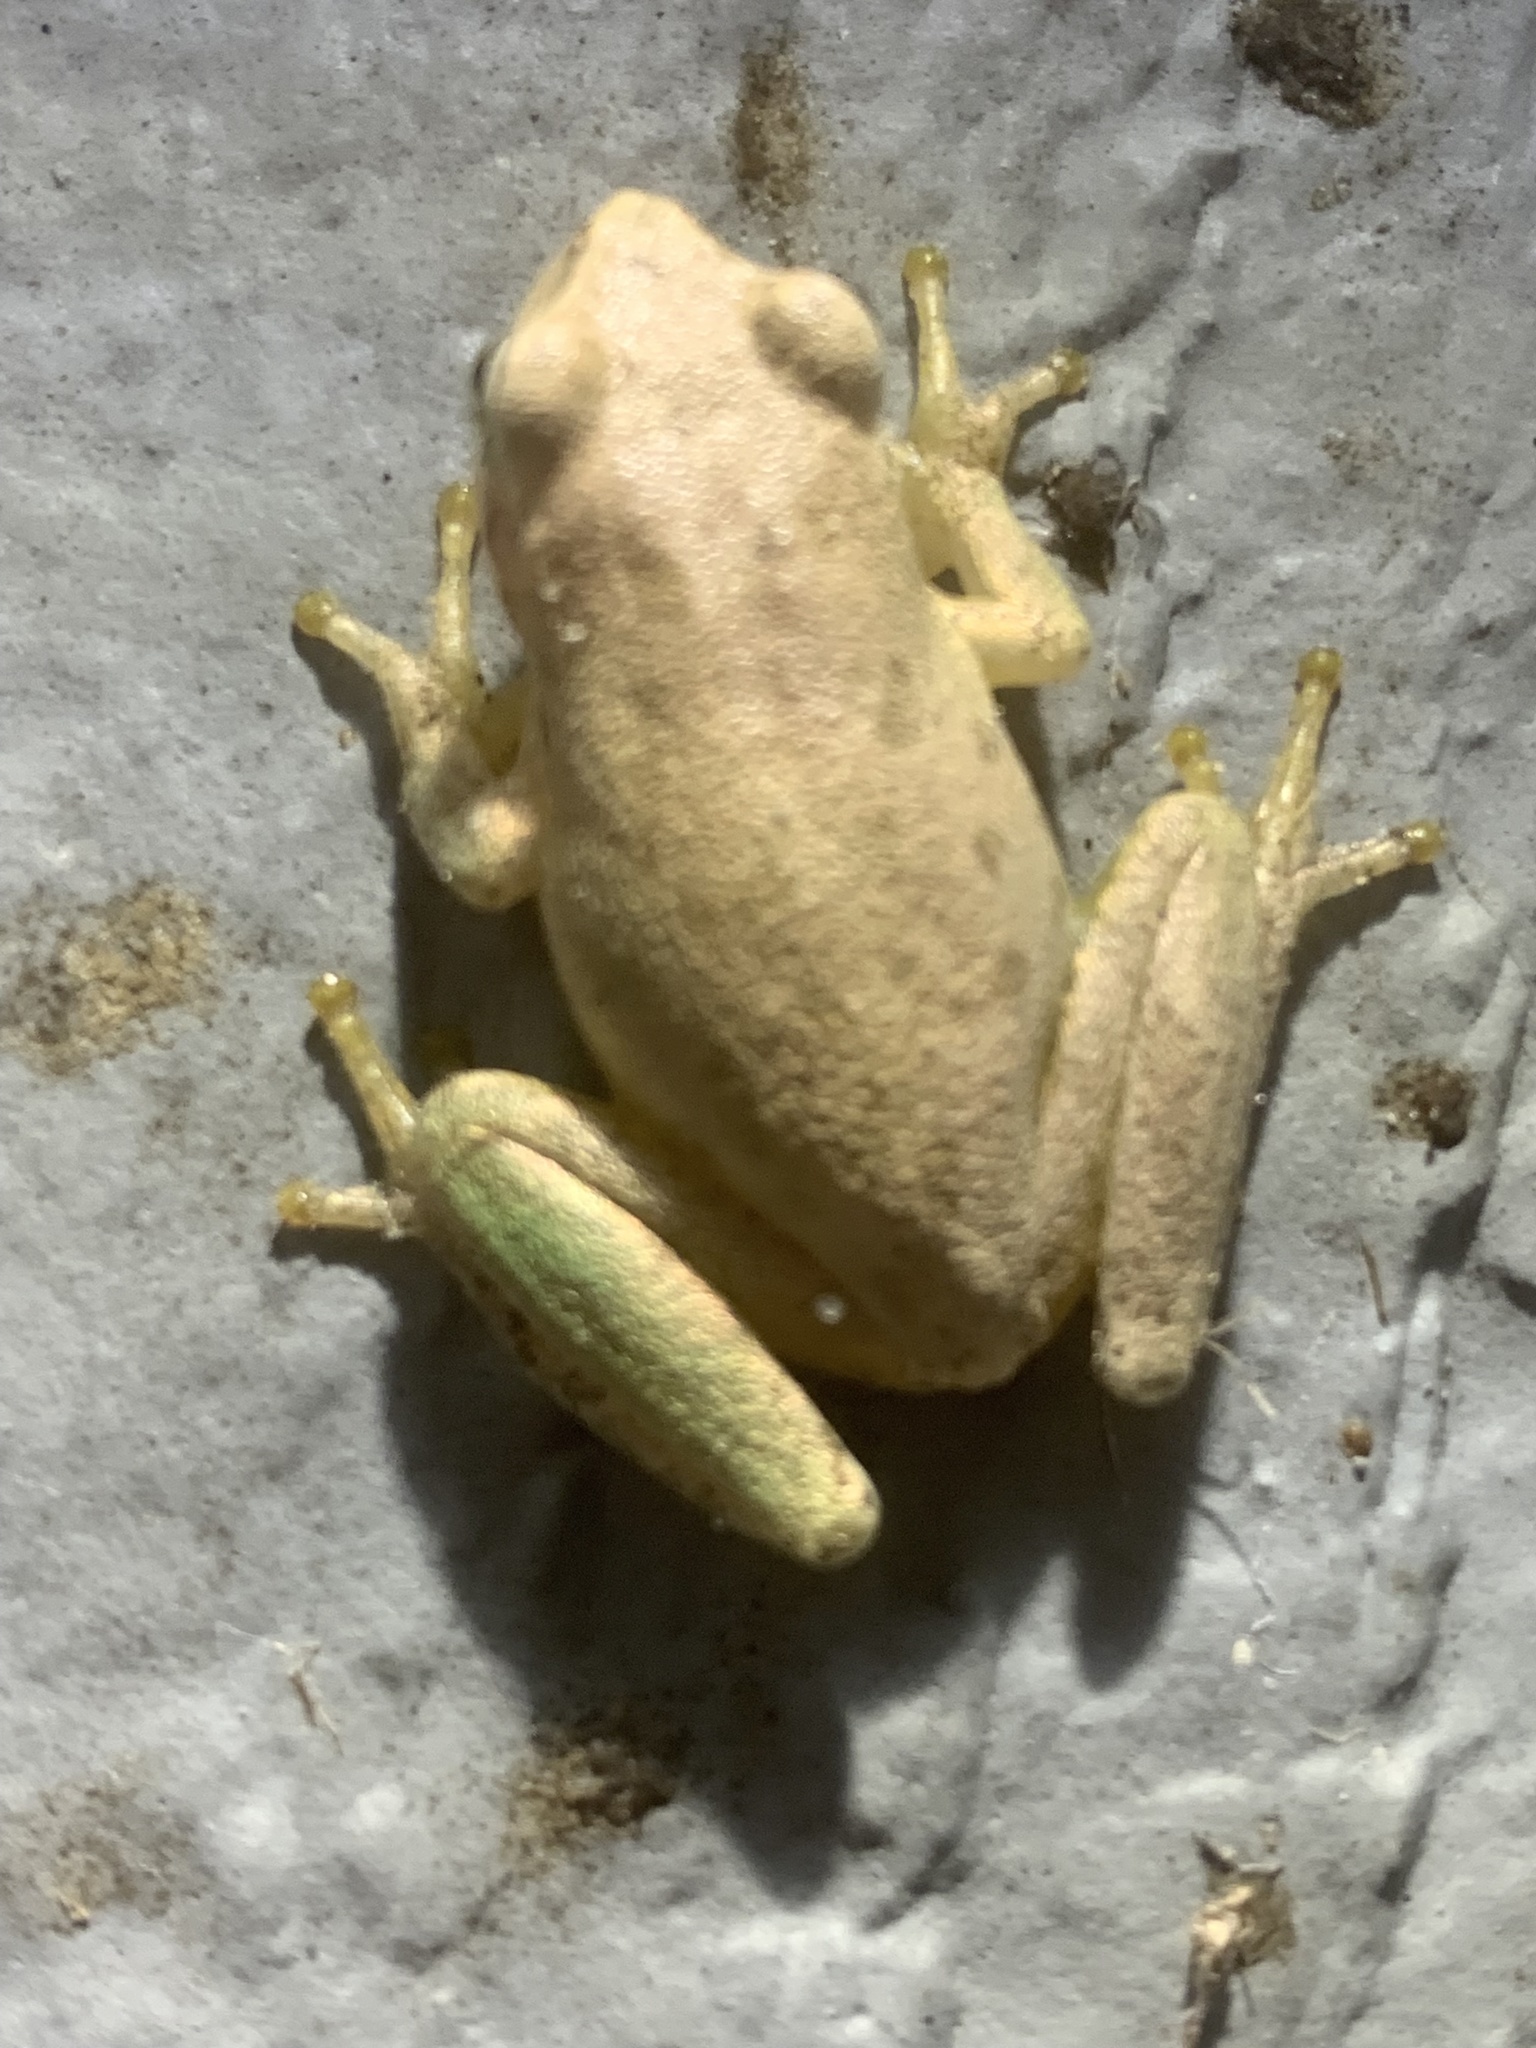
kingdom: Animalia
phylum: Chordata
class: Amphibia
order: Anura
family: Hylidae
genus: Dryophytes
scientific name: Dryophytes squirellus
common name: Squirrel treefrog
